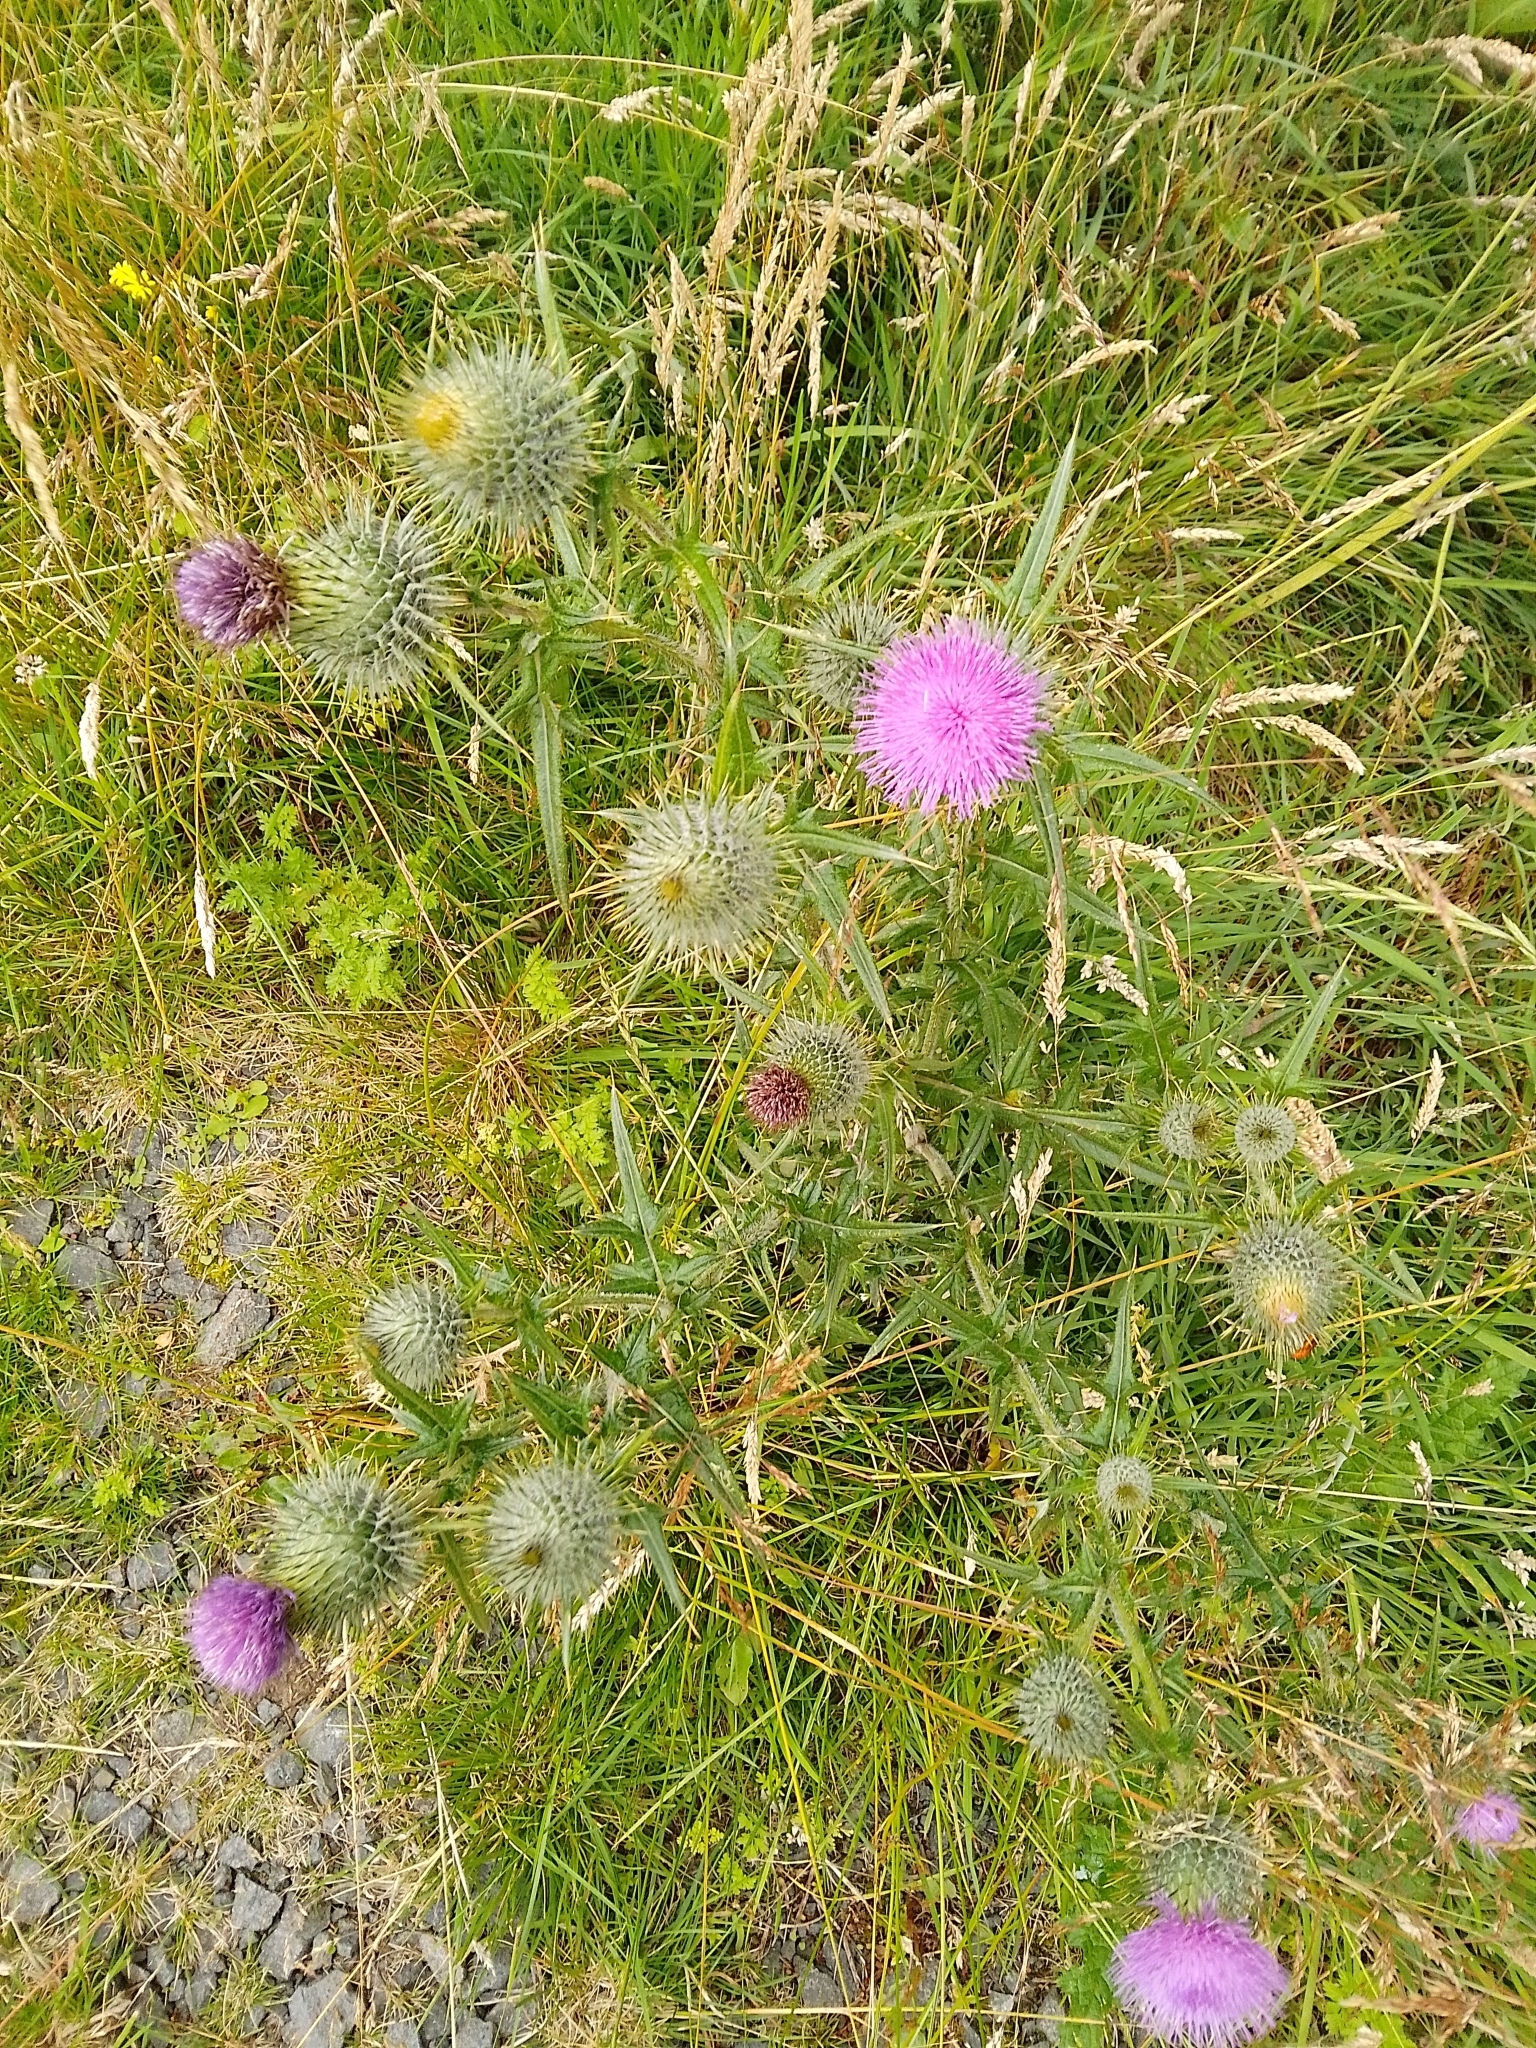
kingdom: Plantae
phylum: Tracheophyta
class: Magnoliopsida
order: Asterales
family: Asteraceae
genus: Cirsium
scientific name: Cirsium vulgare
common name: Bull thistle
